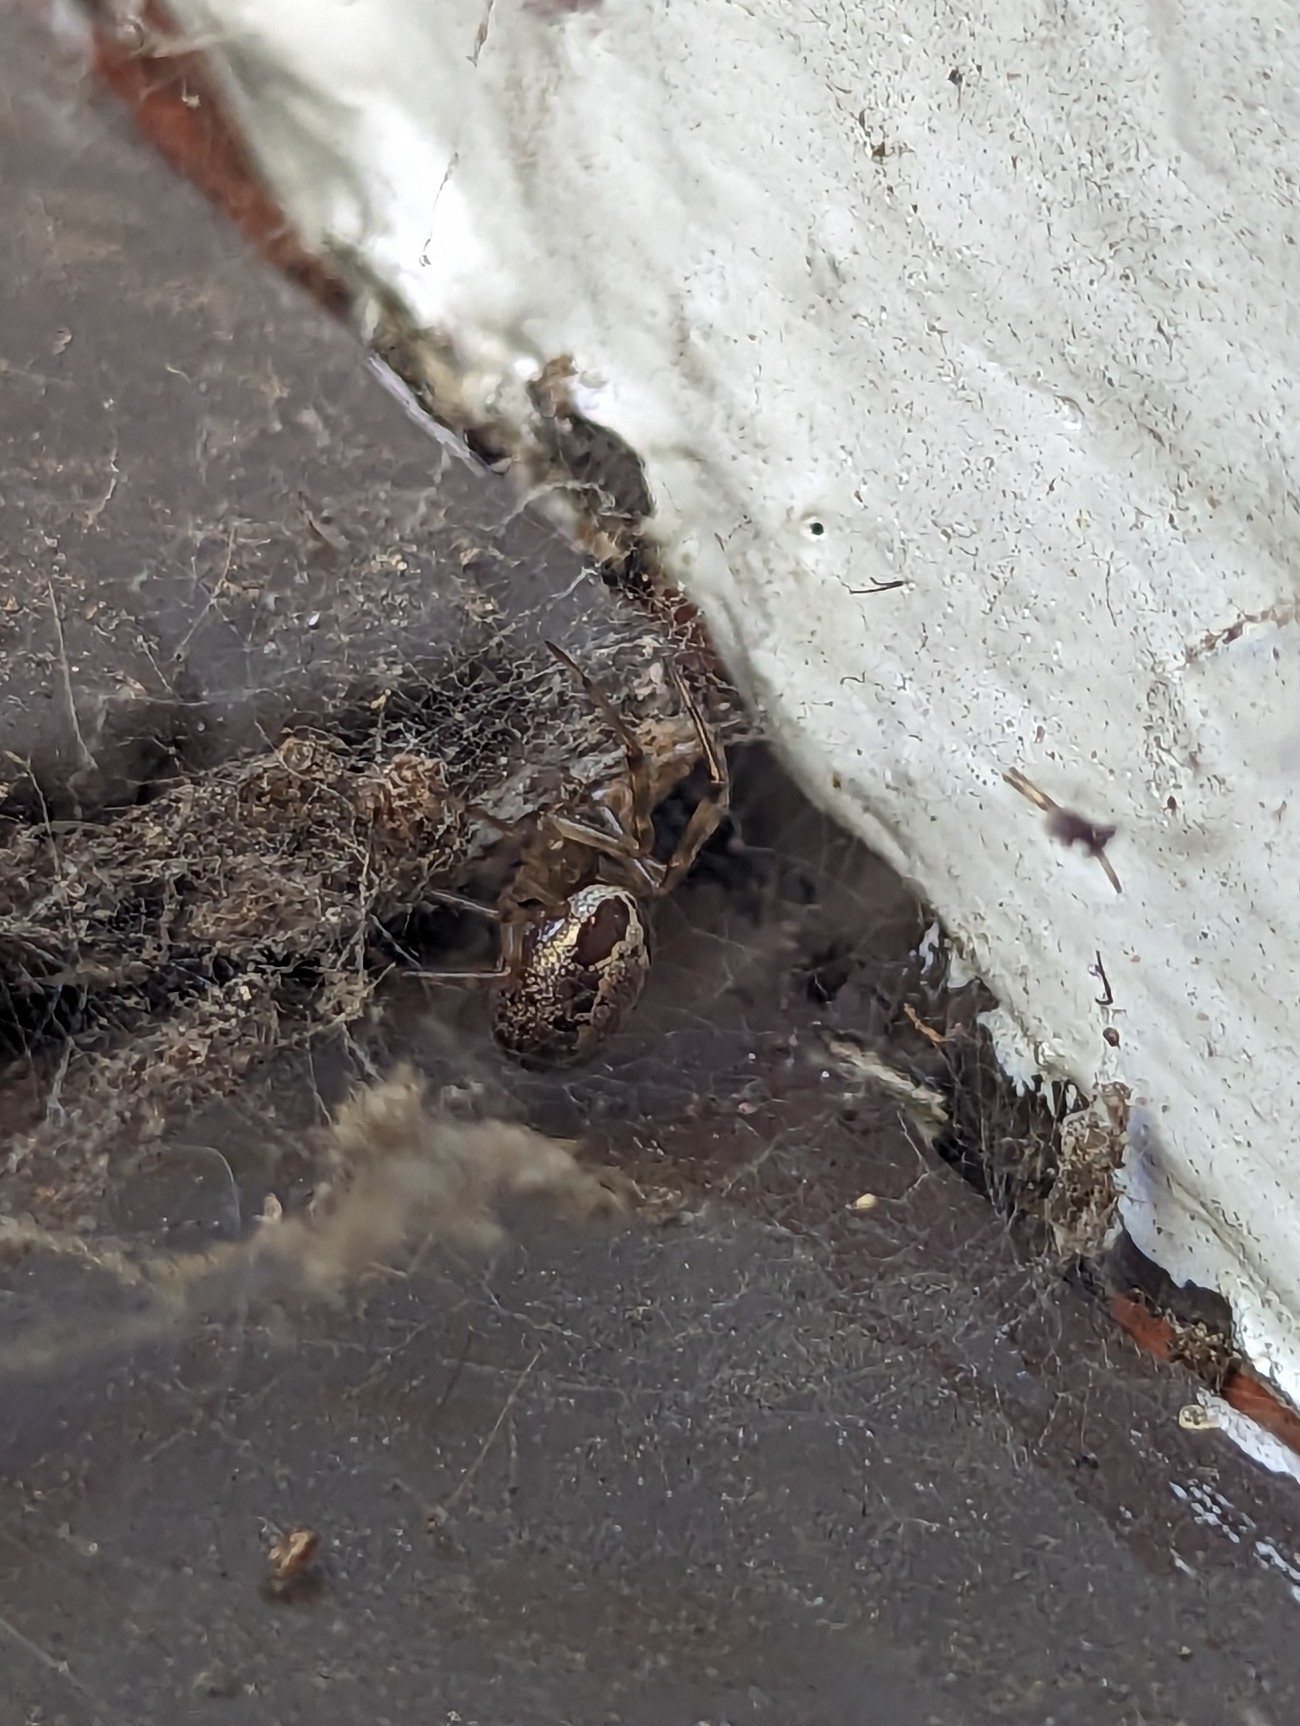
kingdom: Animalia
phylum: Arthropoda
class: Arachnida
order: Araneae
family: Theridiidae
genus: Steatoda
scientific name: Steatoda nobilis
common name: Cobweb weaver
